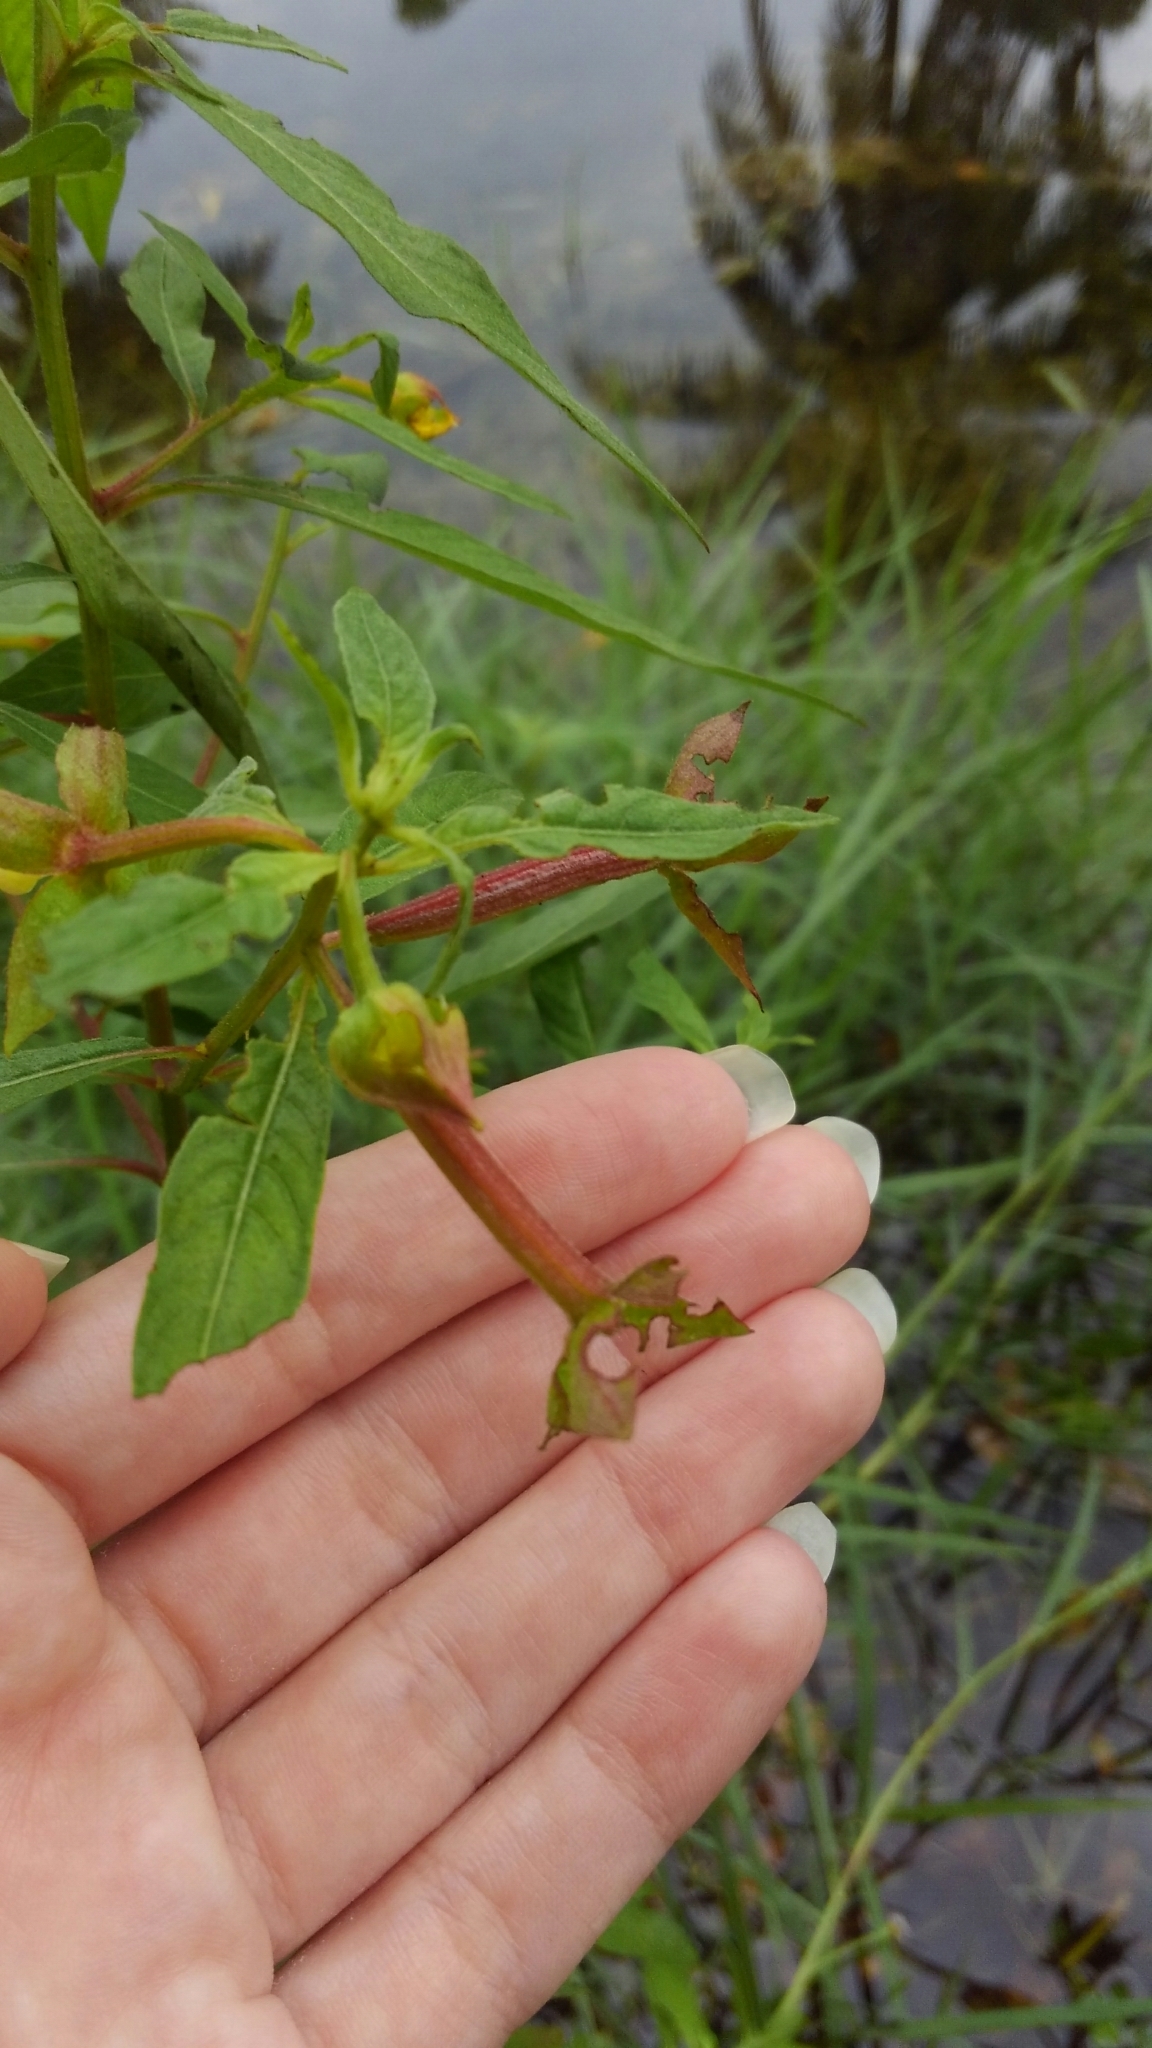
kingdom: Plantae
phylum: Tracheophyta
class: Magnoliopsida
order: Myrtales
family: Onagraceae
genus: Ludwigia
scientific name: Ludwigia octovalvis
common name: Water-primrose
